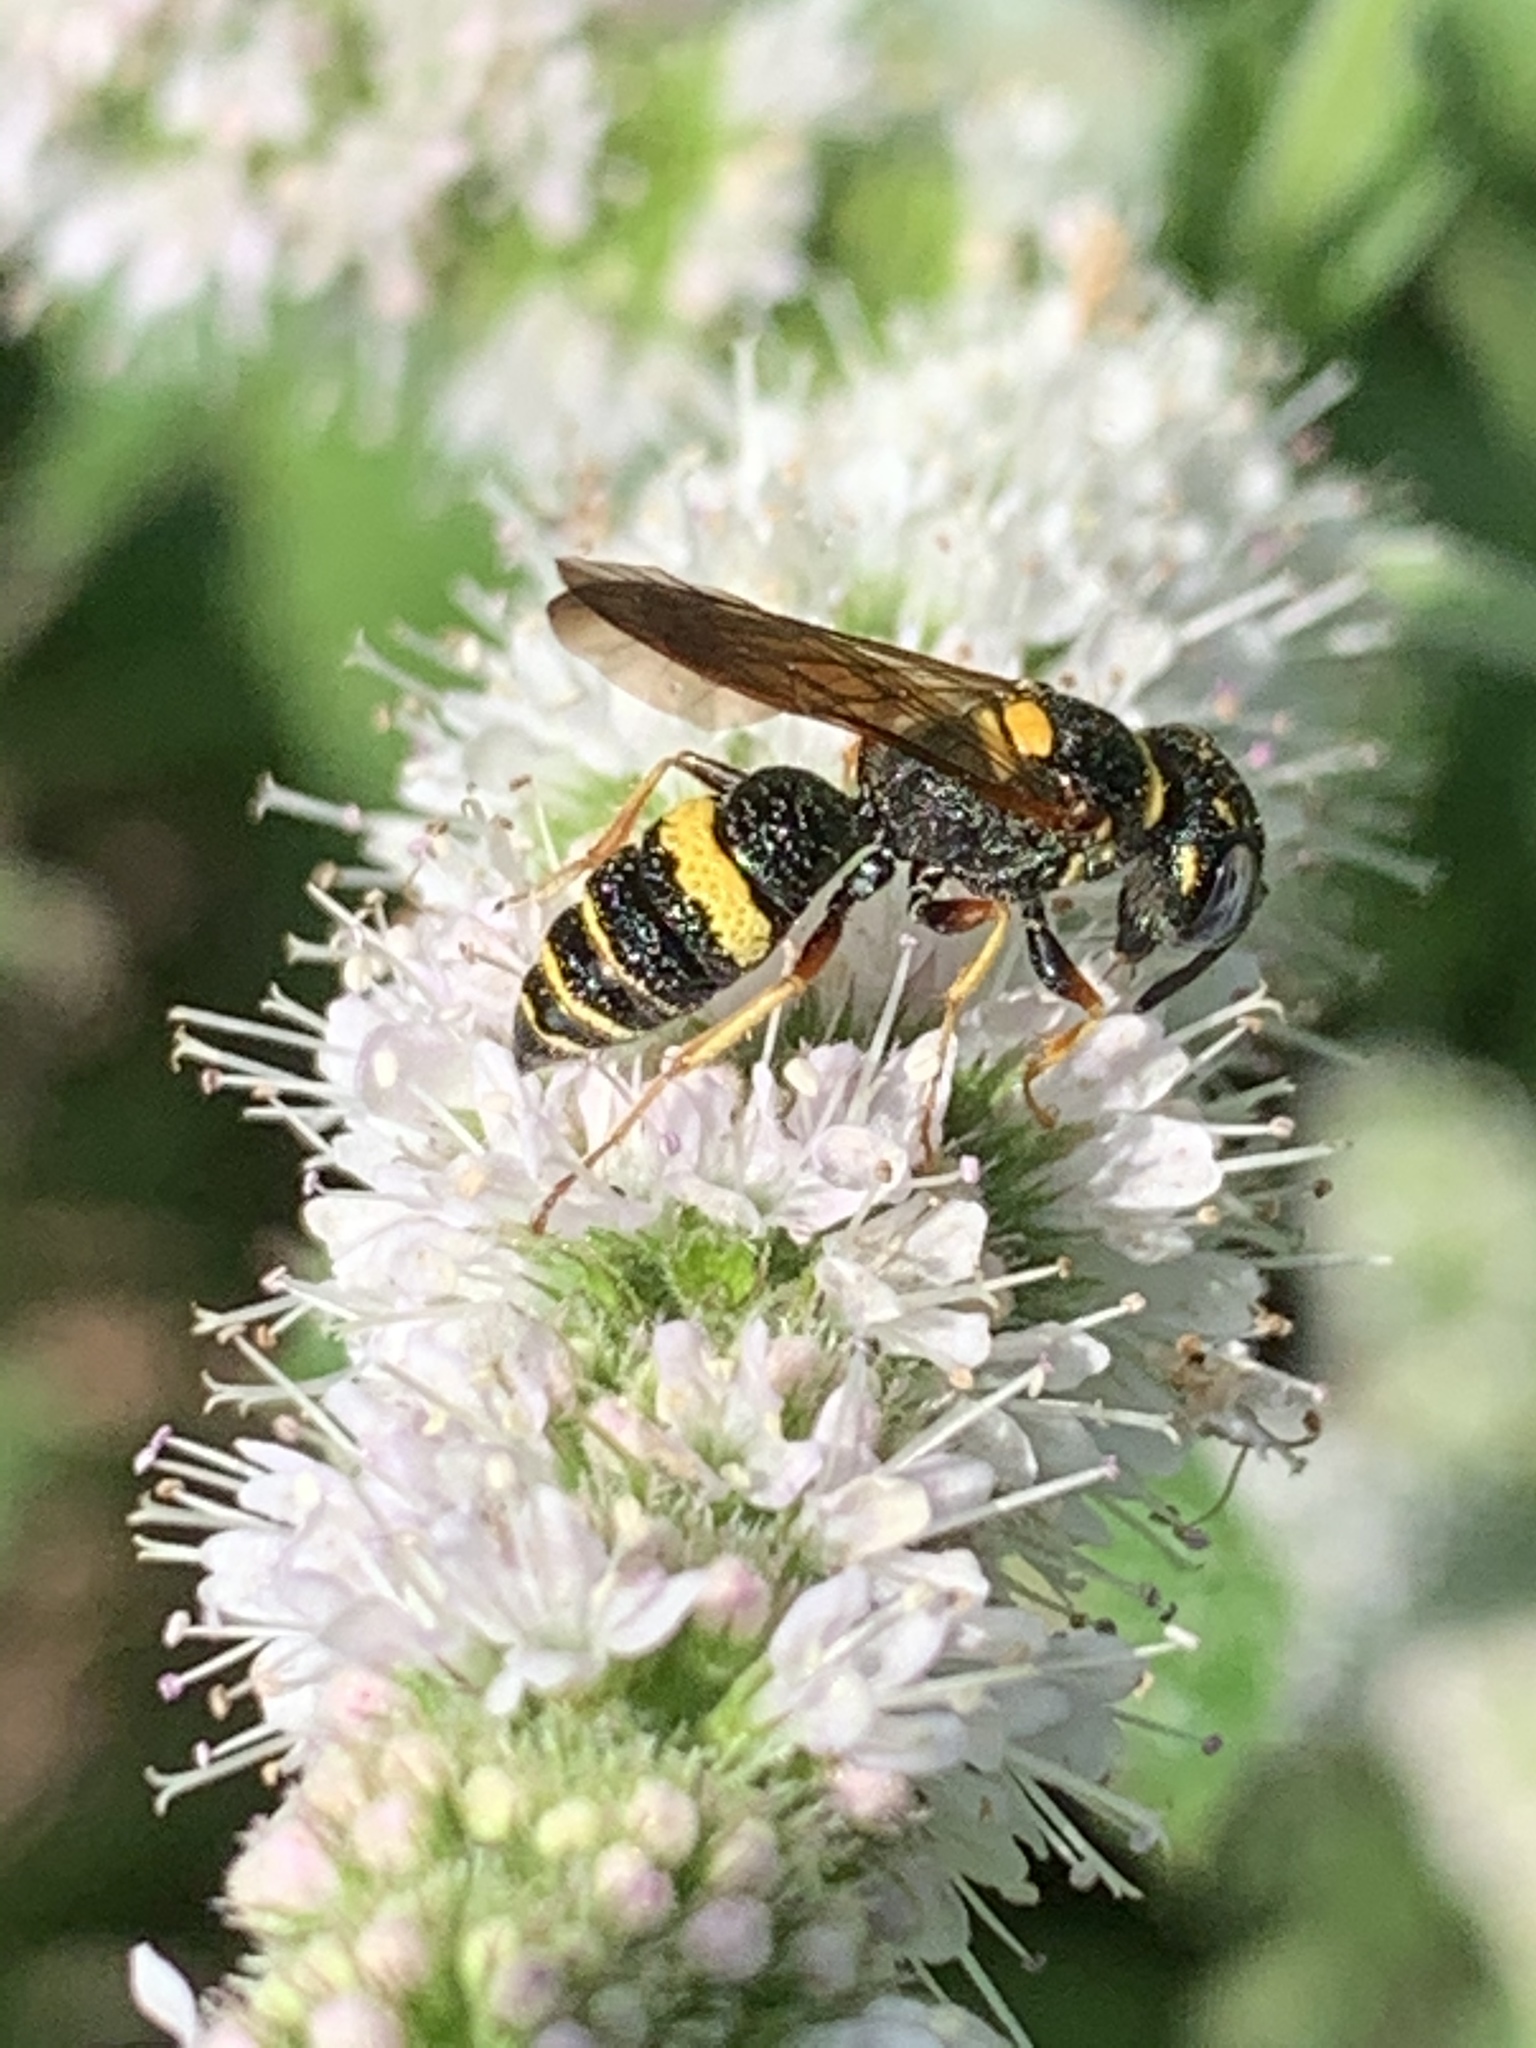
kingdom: Animalia
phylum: Arthropoda
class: Insecta
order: Hymenoptera
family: Crabronidae
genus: Philanthus
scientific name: Philanthus gibbosus
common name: Humped beewolf
